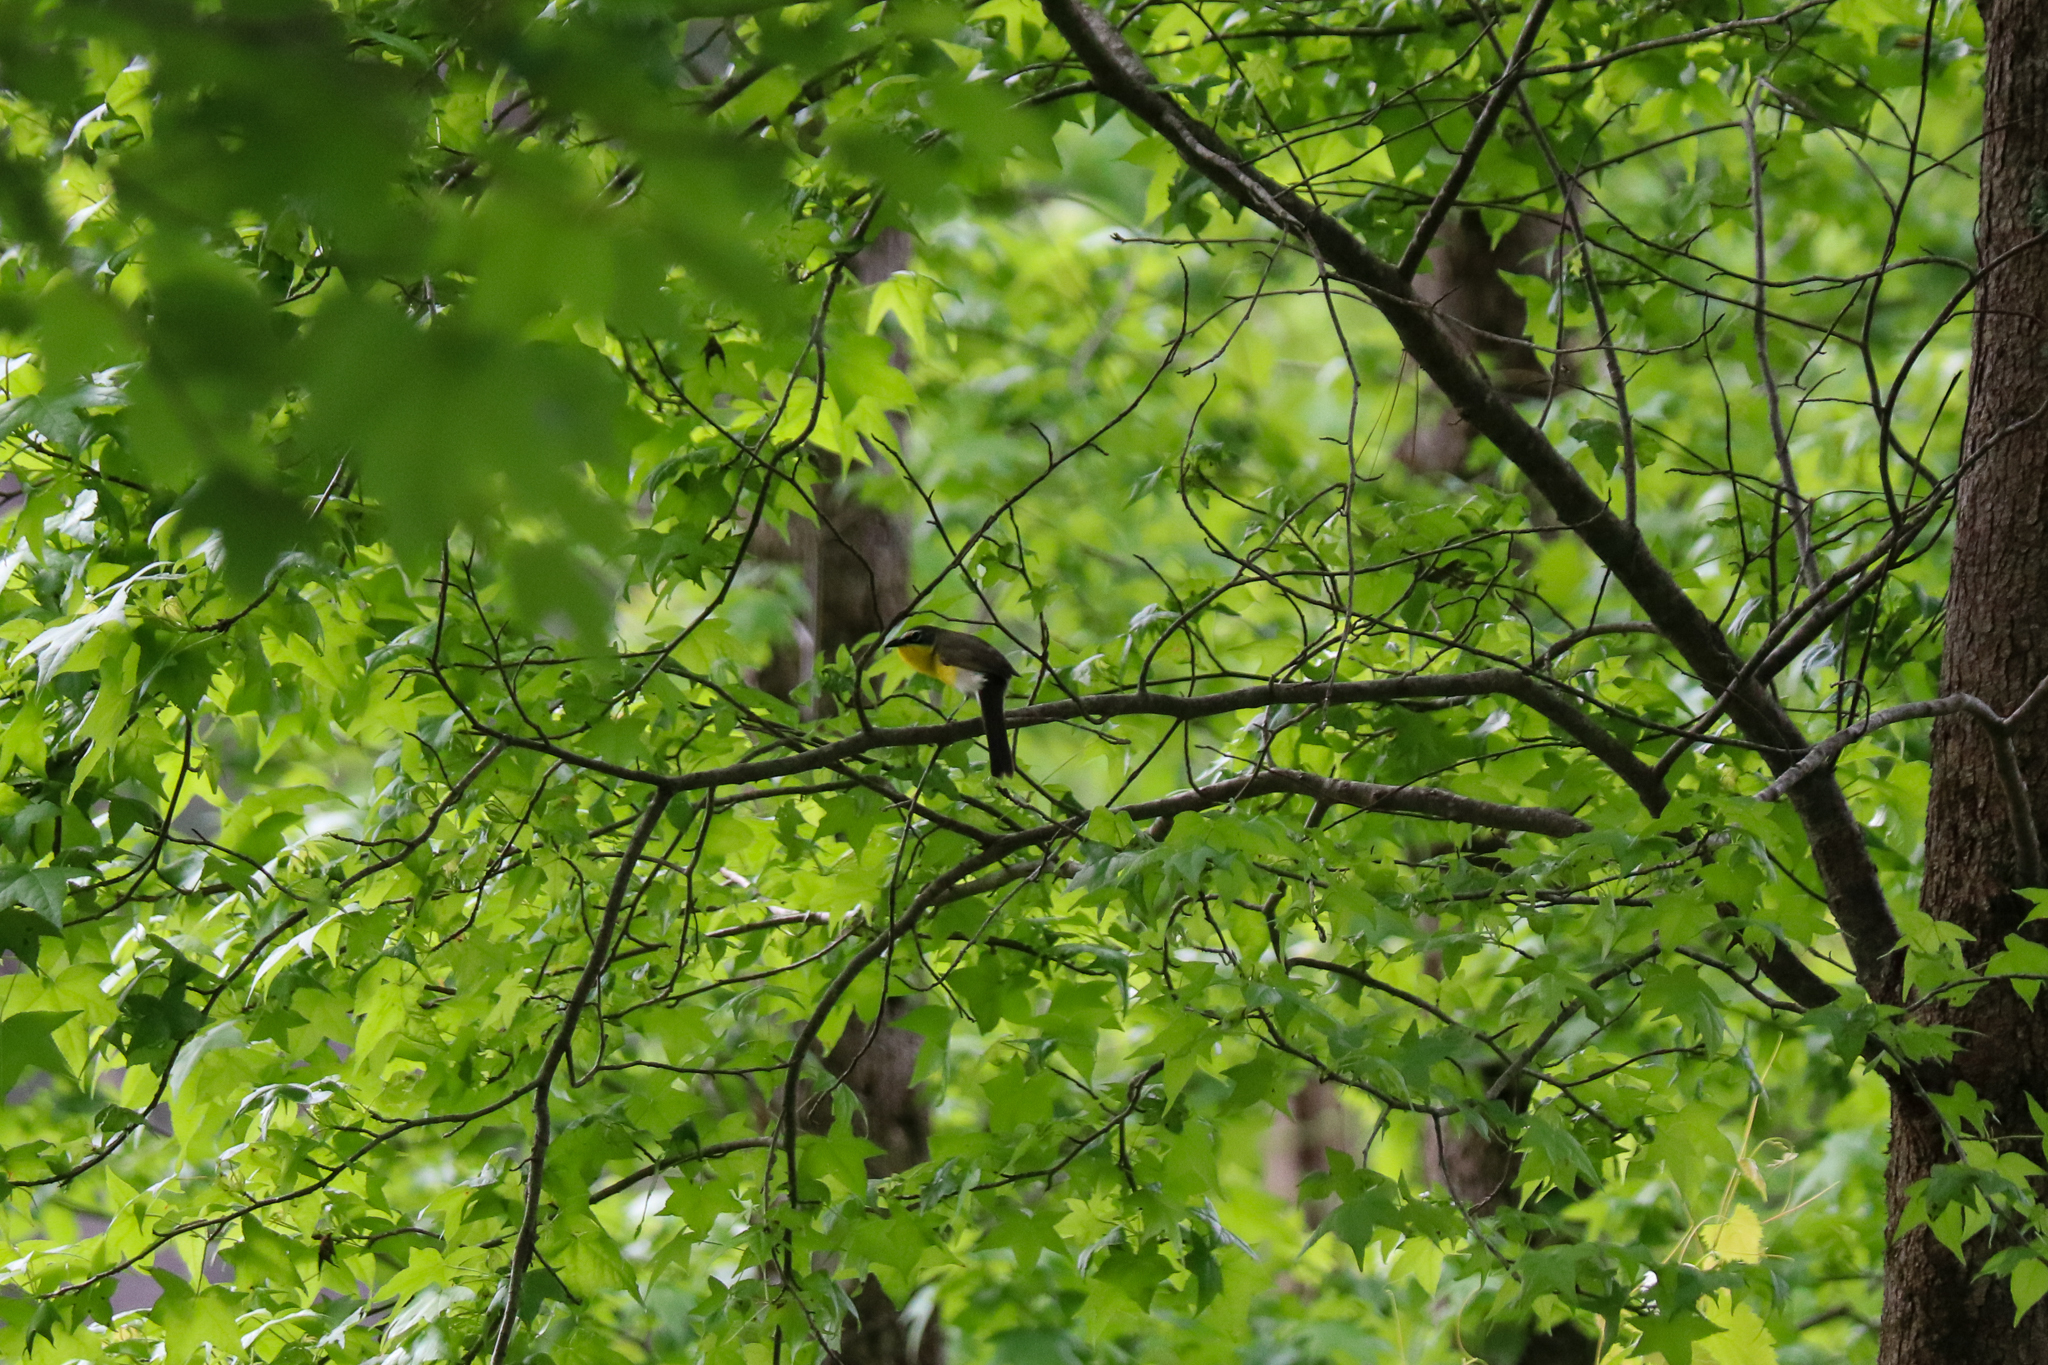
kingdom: Animalia
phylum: Chordata
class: Aves
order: Passeriformes
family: Parulidae
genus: Icteria
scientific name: Icteria virens
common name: Yellow-breasted chat
